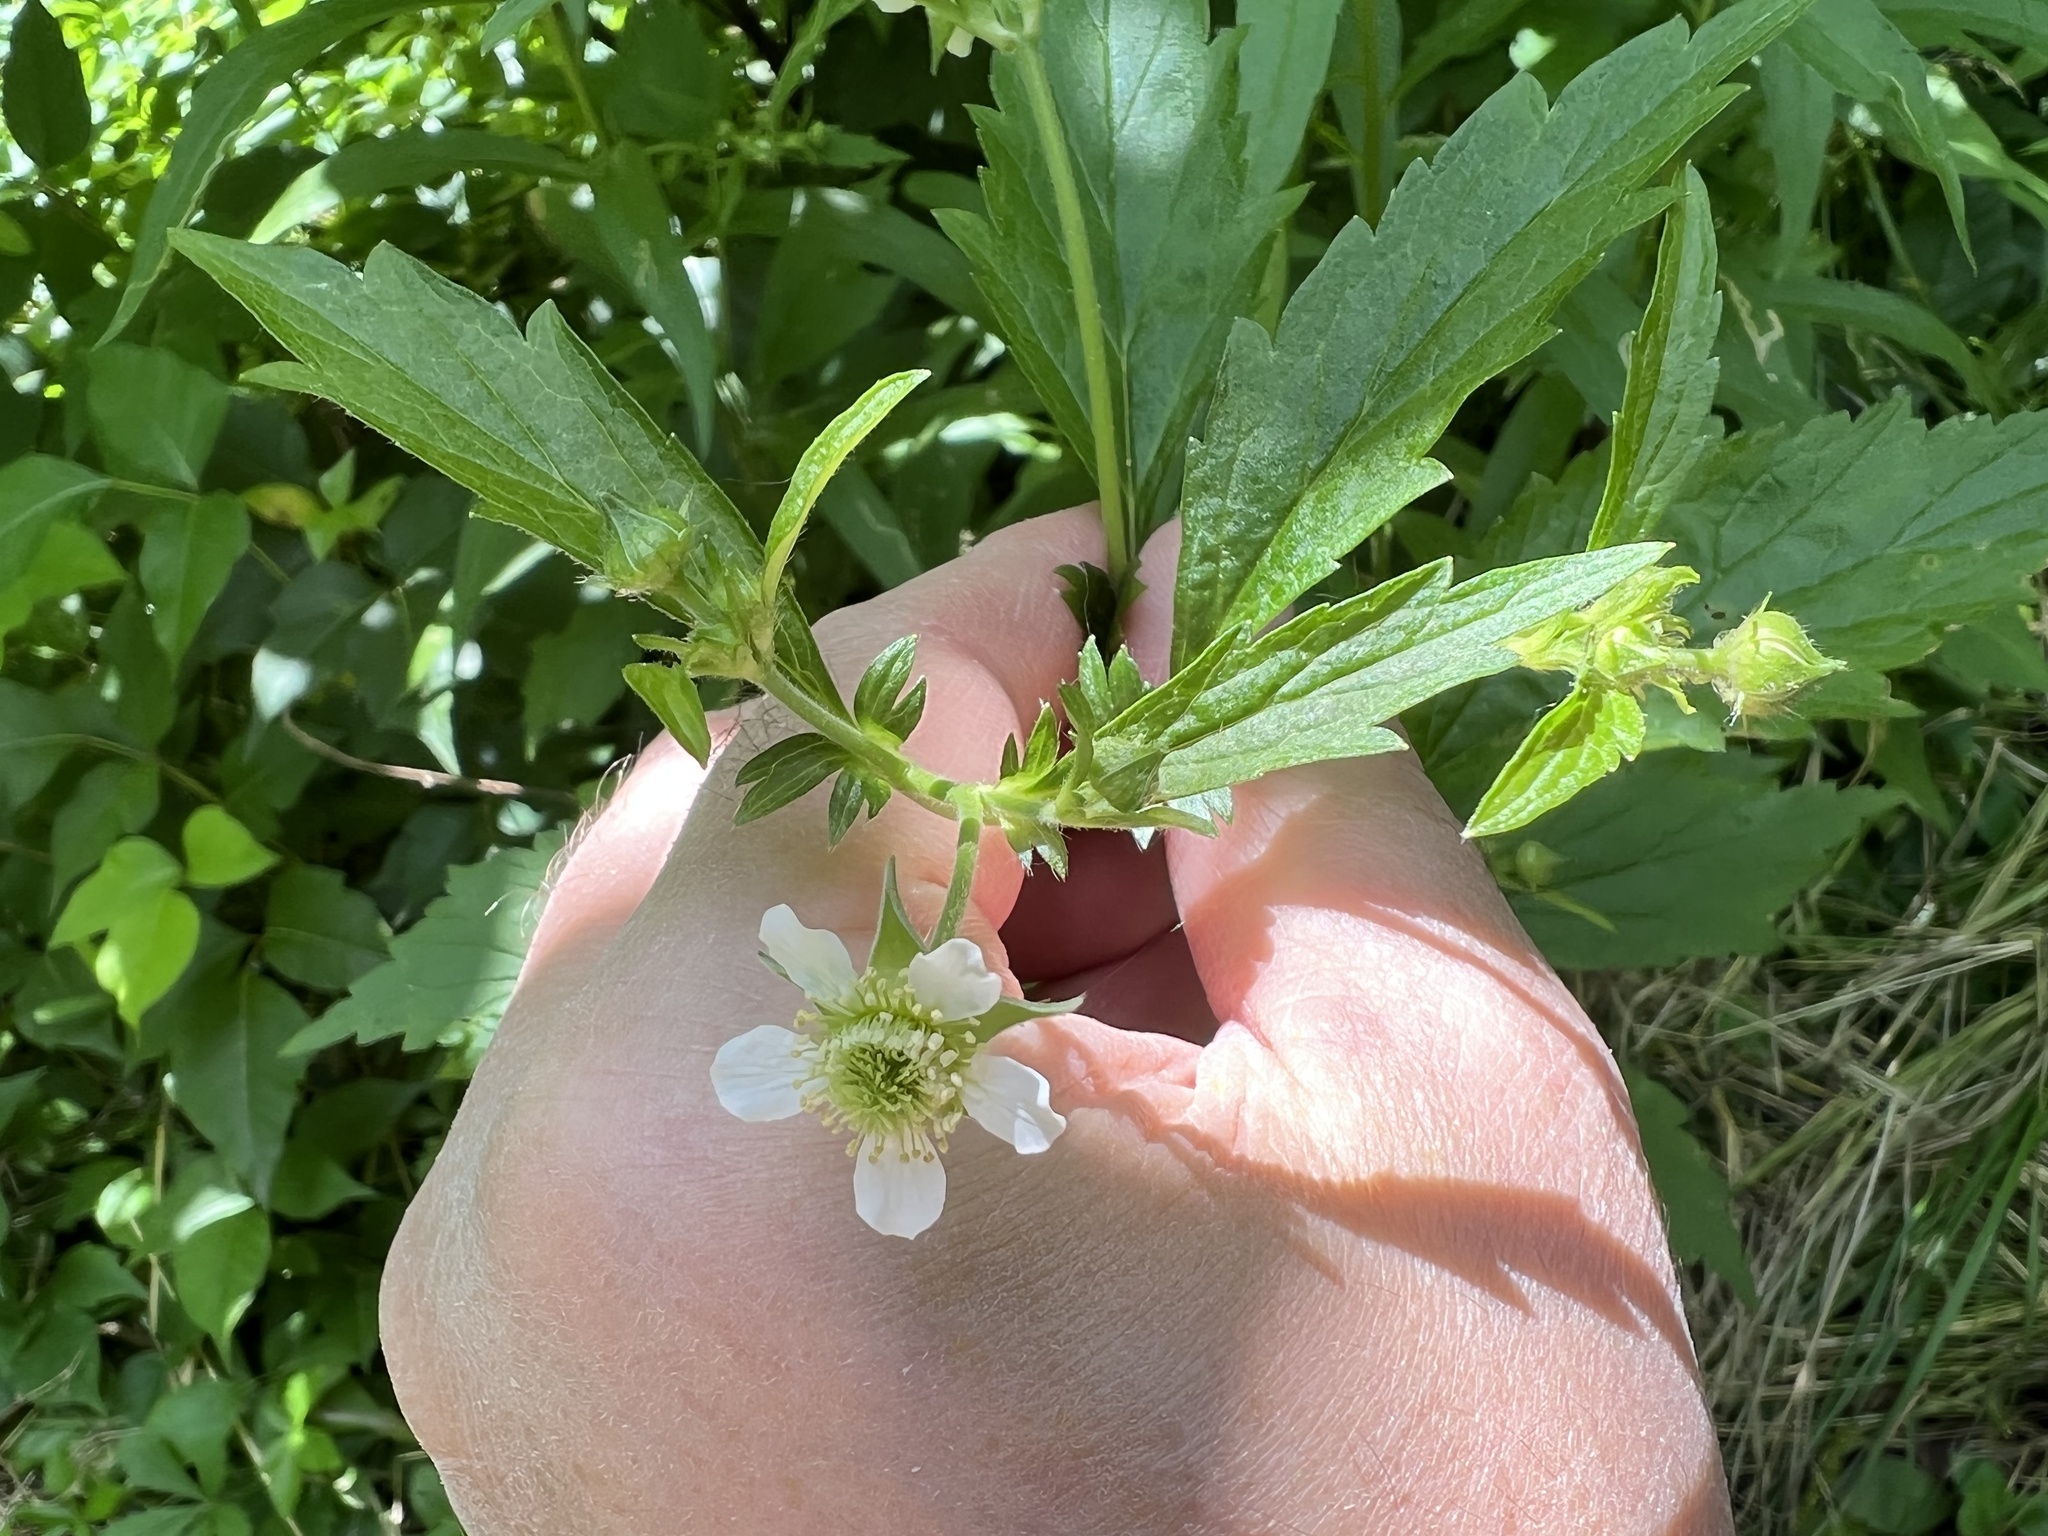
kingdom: Plantae
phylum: Tracheophyta
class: Magnoliopsida
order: Rosales
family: Rosaceae
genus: Geum
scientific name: Geum canadense
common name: White avens
